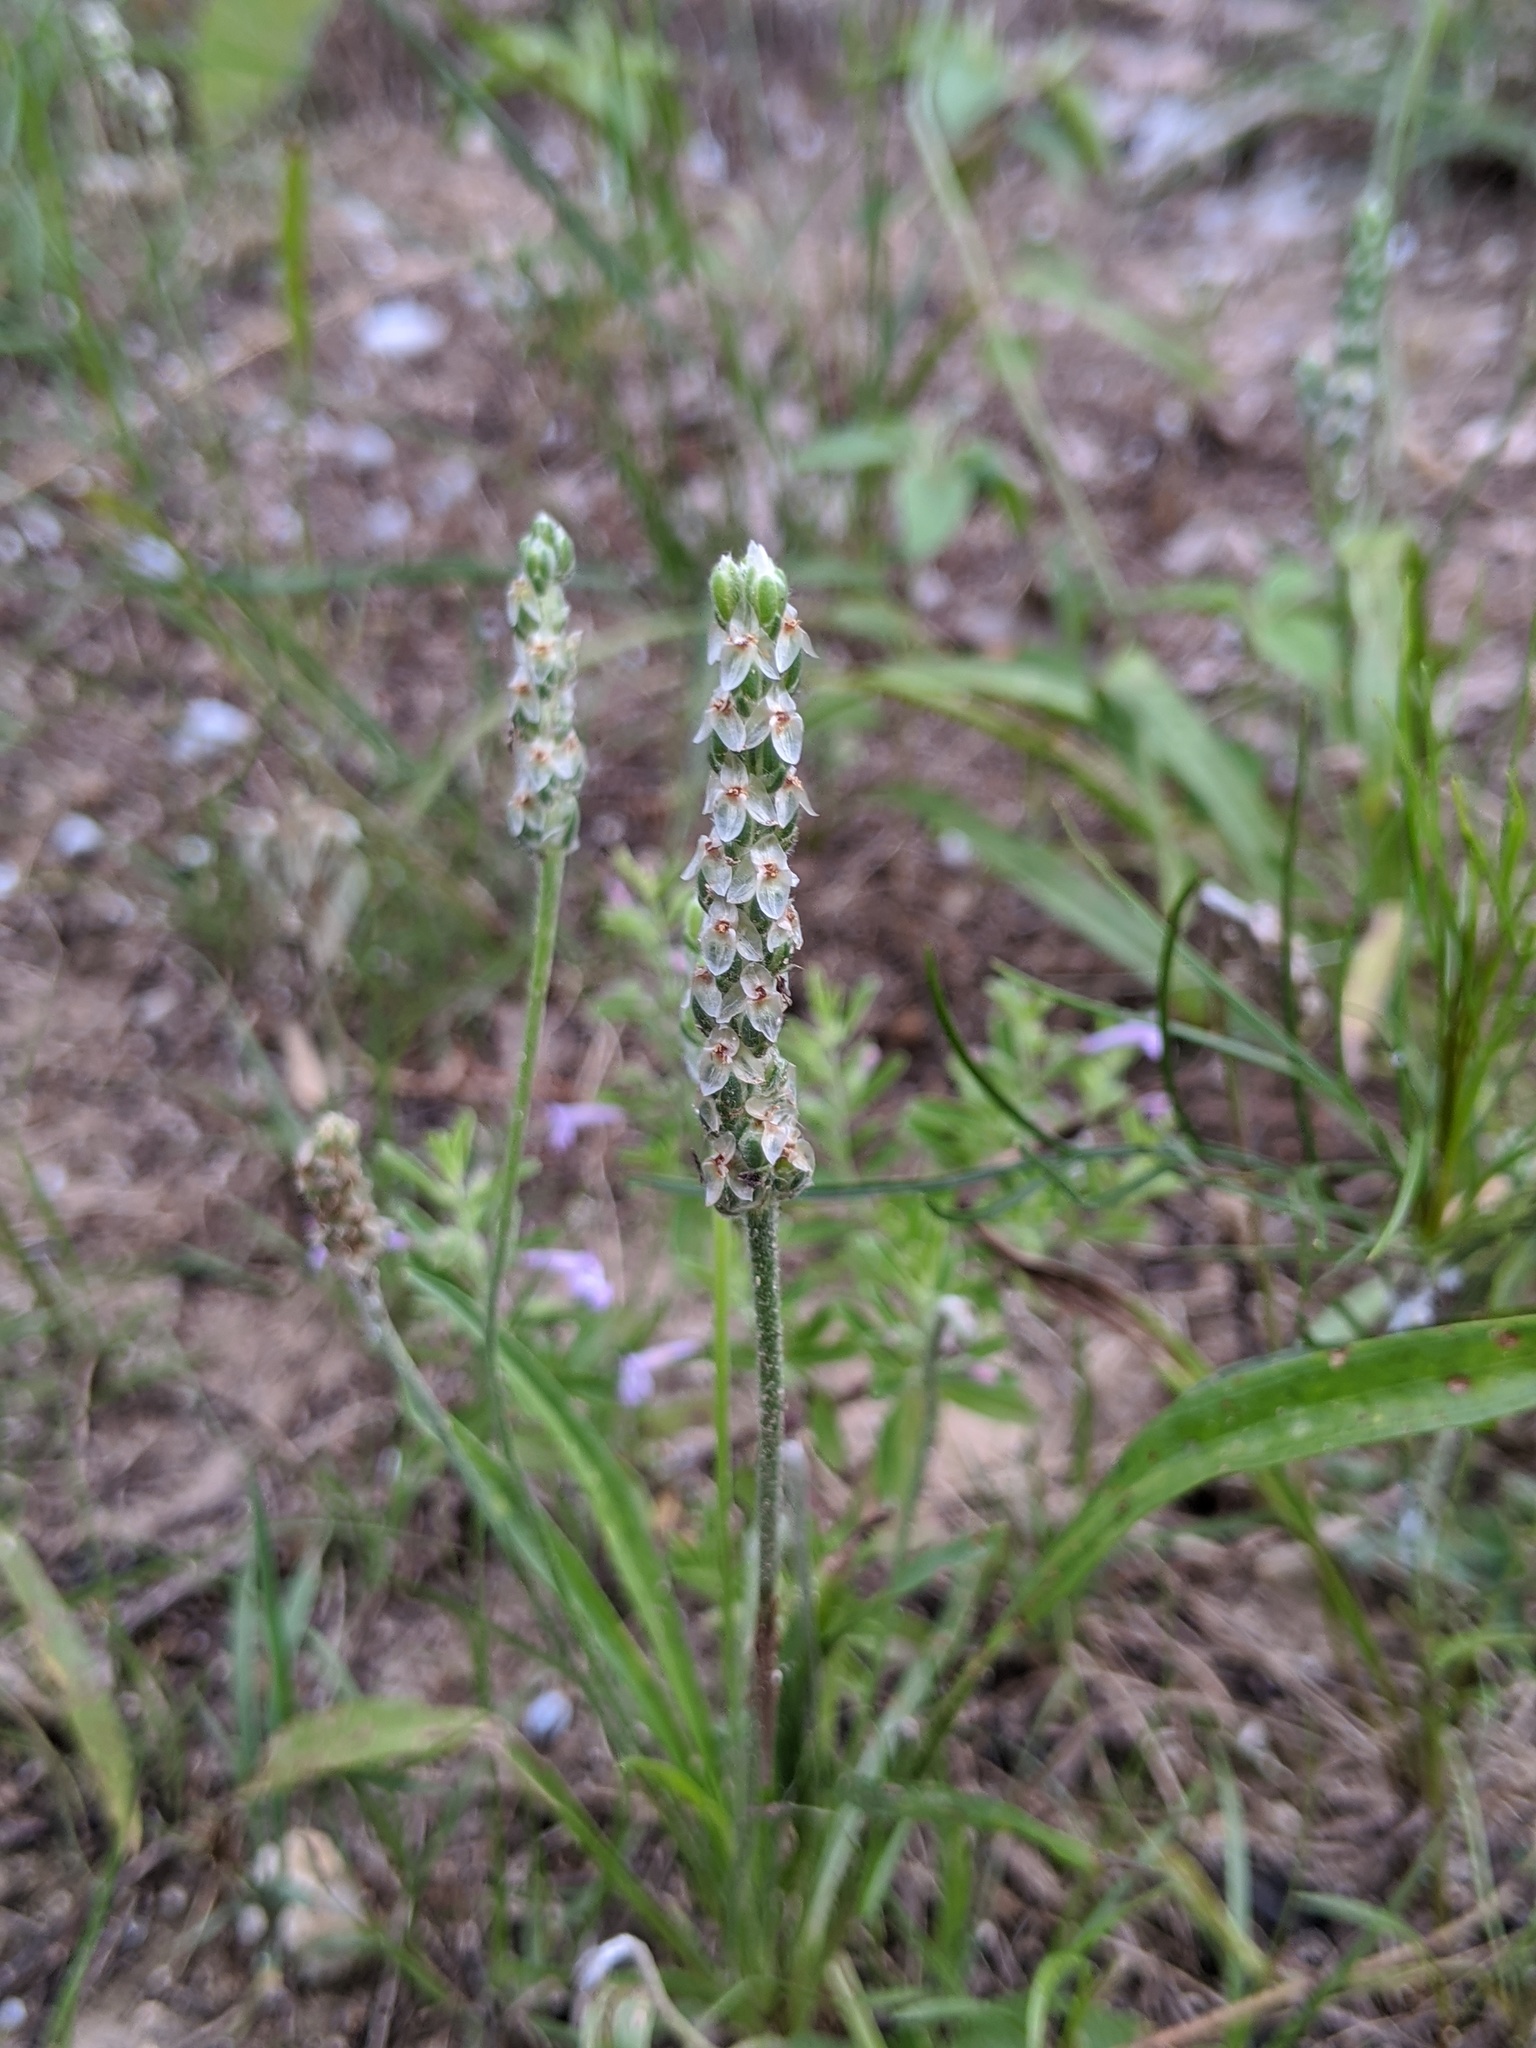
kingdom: Plantae
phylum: Tracheophyta
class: Magnoliopsida
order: Lamiales
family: Plantaginaceae
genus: Plantago
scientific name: Plantago wrightiana
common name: Wright's plantain
